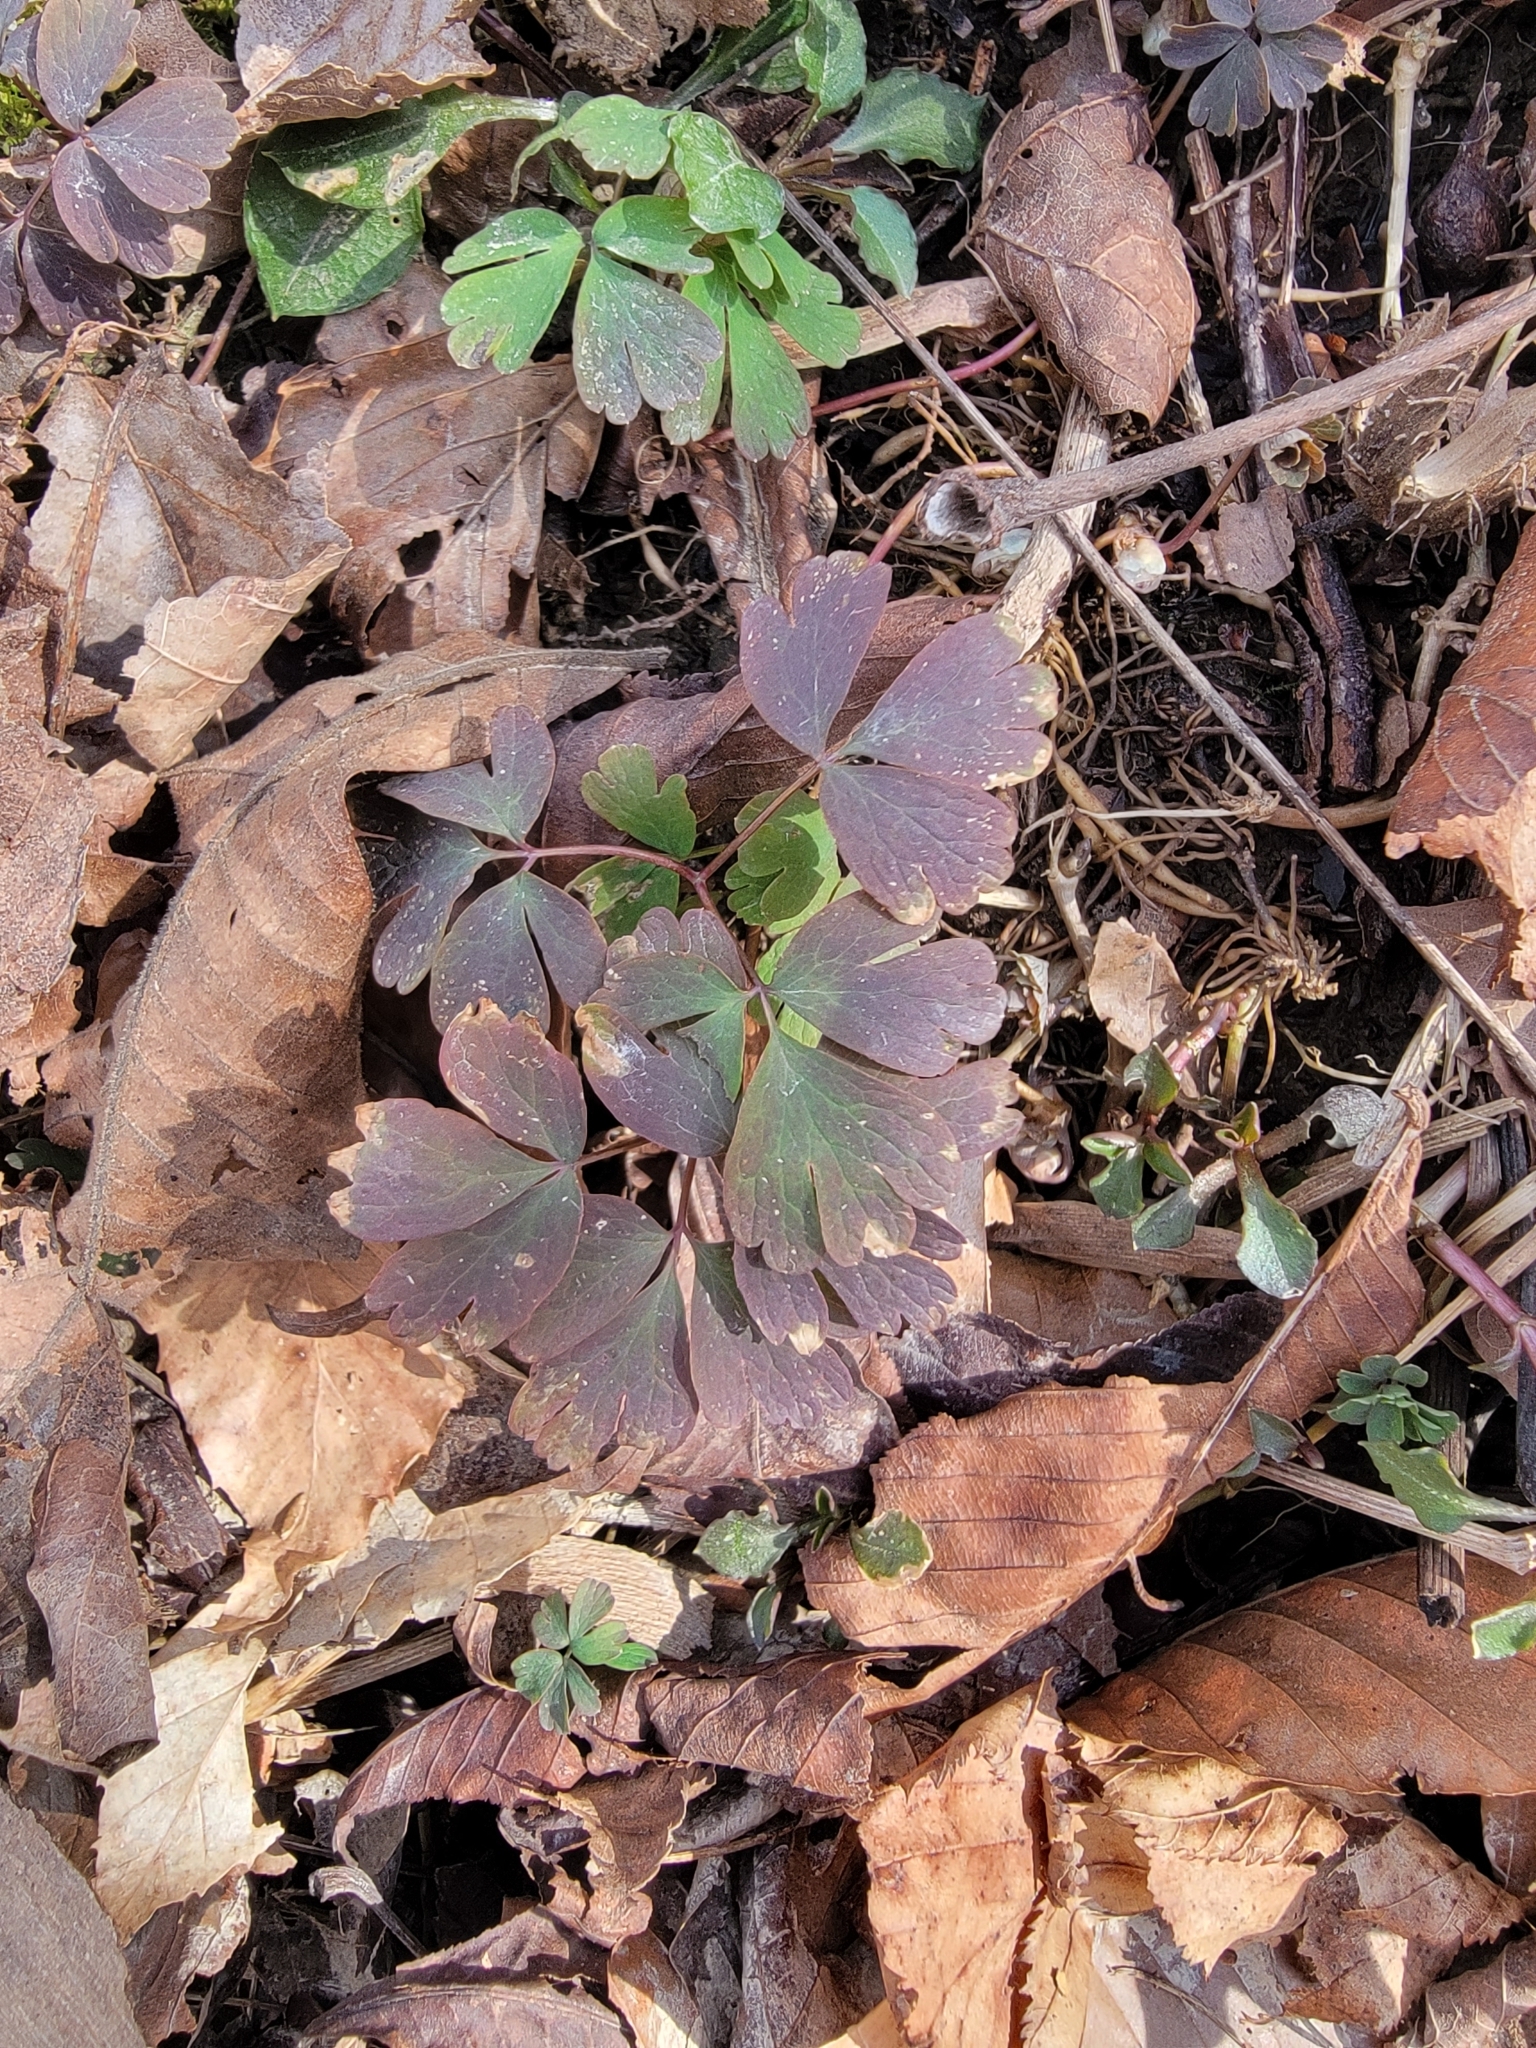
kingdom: Plantae
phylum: Tracheophyta
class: Magnoliopsida
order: Ranunculales
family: Ranunculaceae
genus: Enemion
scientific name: Enemion biternatum
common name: Eastern false rue-anemone
